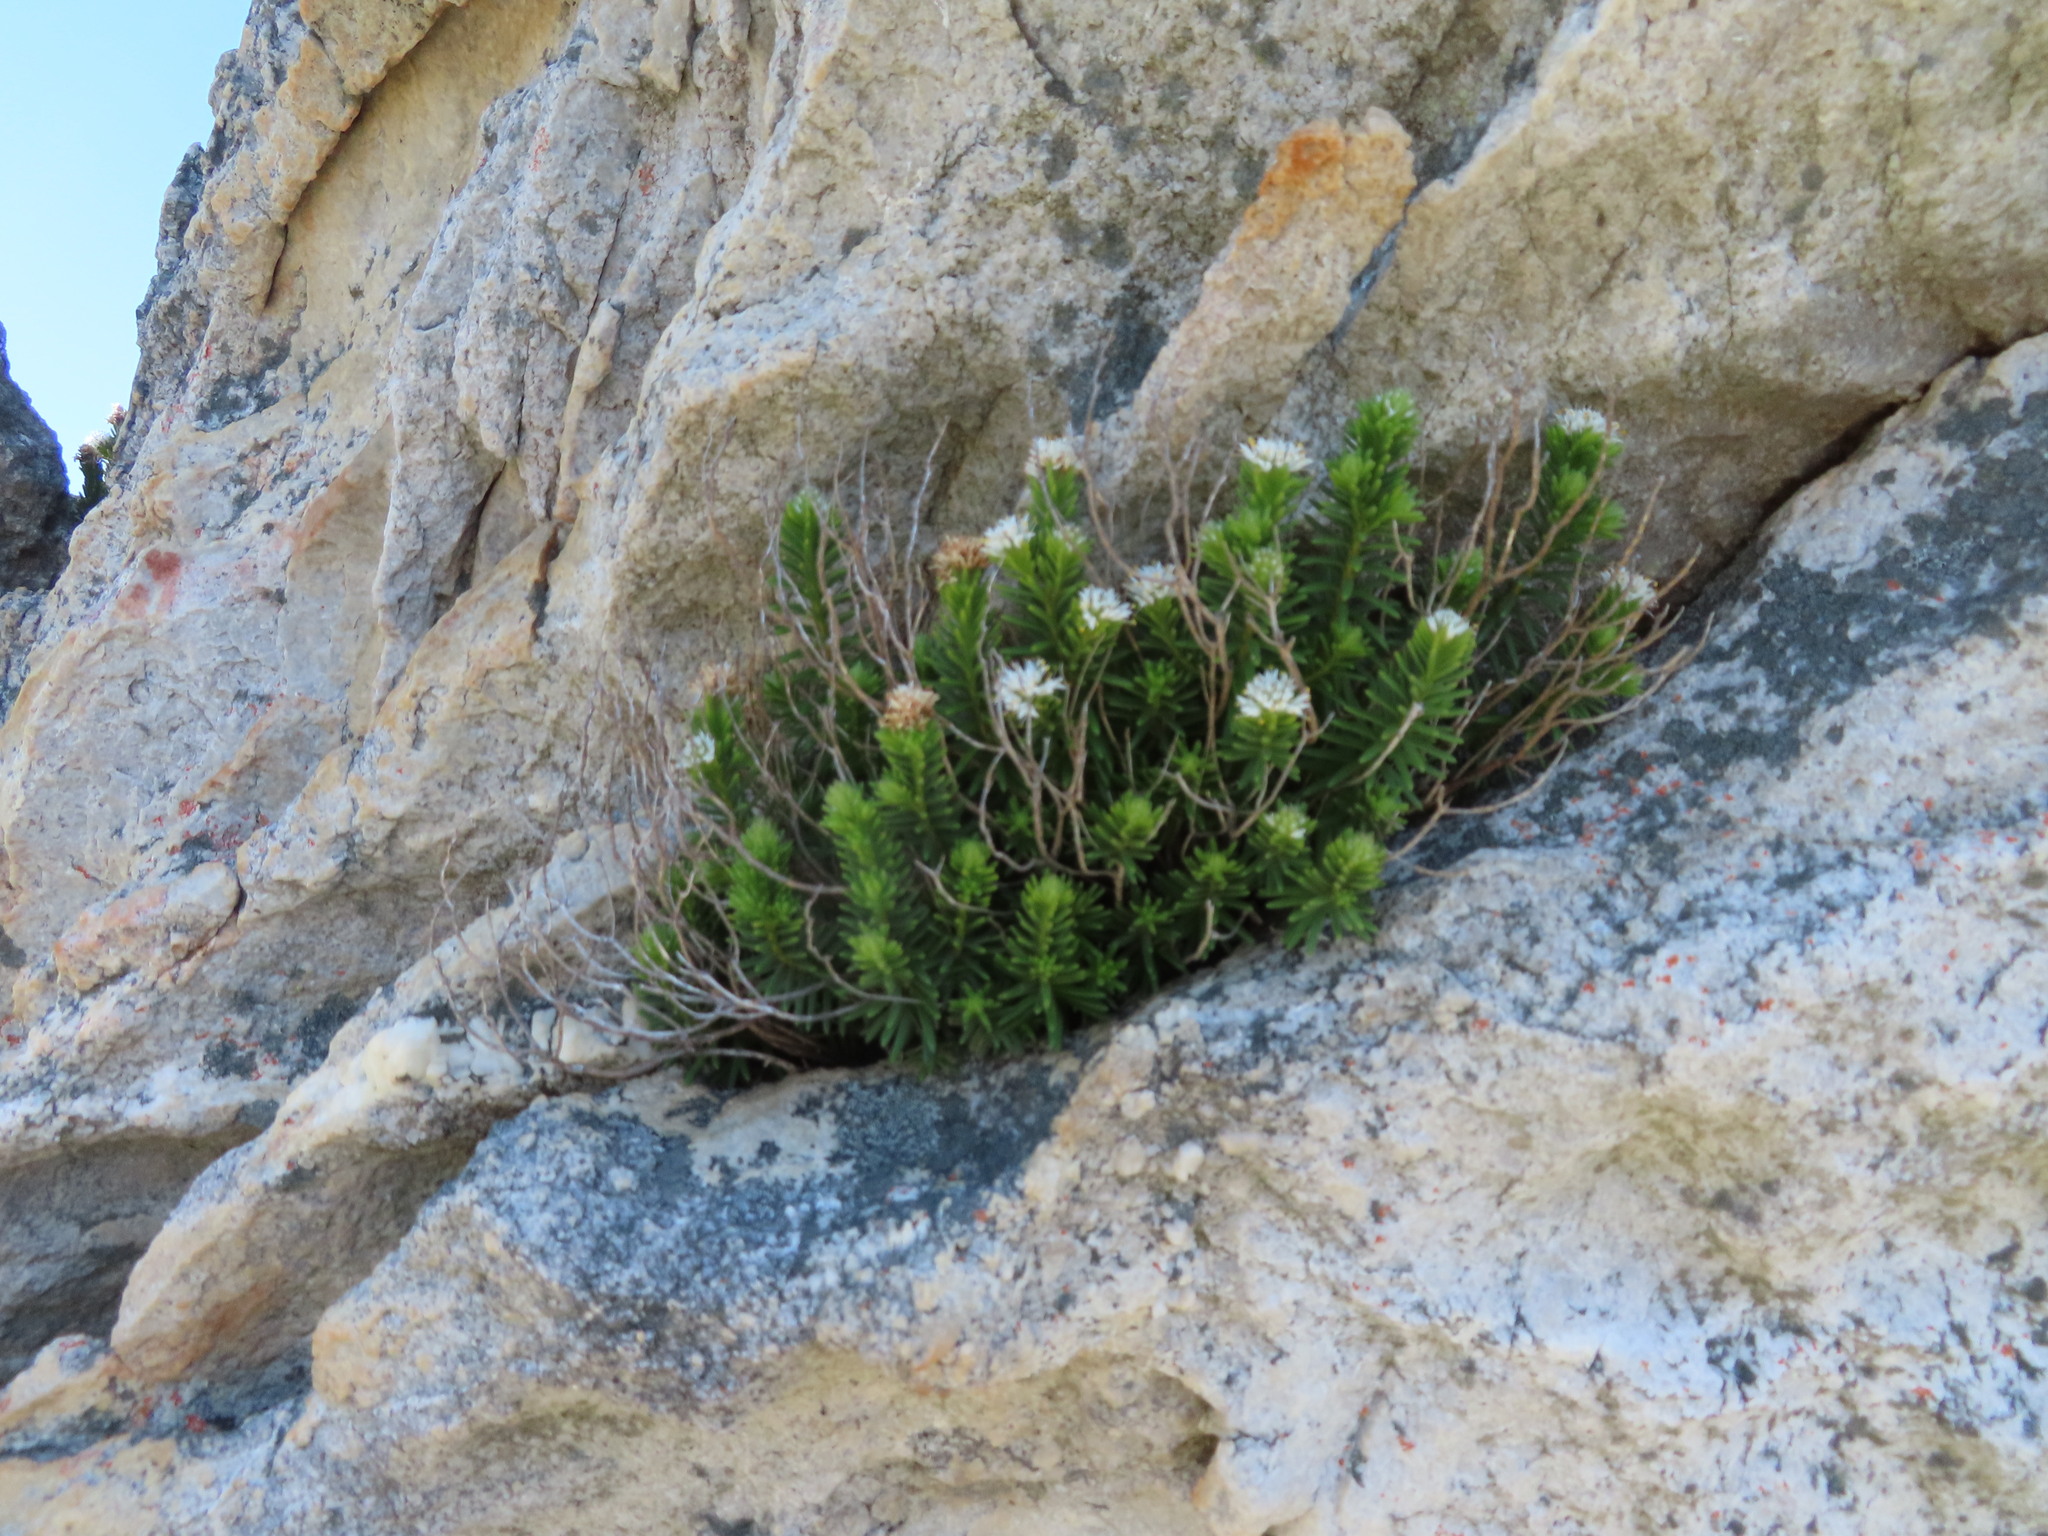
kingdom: Plantae
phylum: Tracheophyta
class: Magnoliopsida
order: Lamiales
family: Stilbaceae
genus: Stilbe
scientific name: Stilbe rupestris
